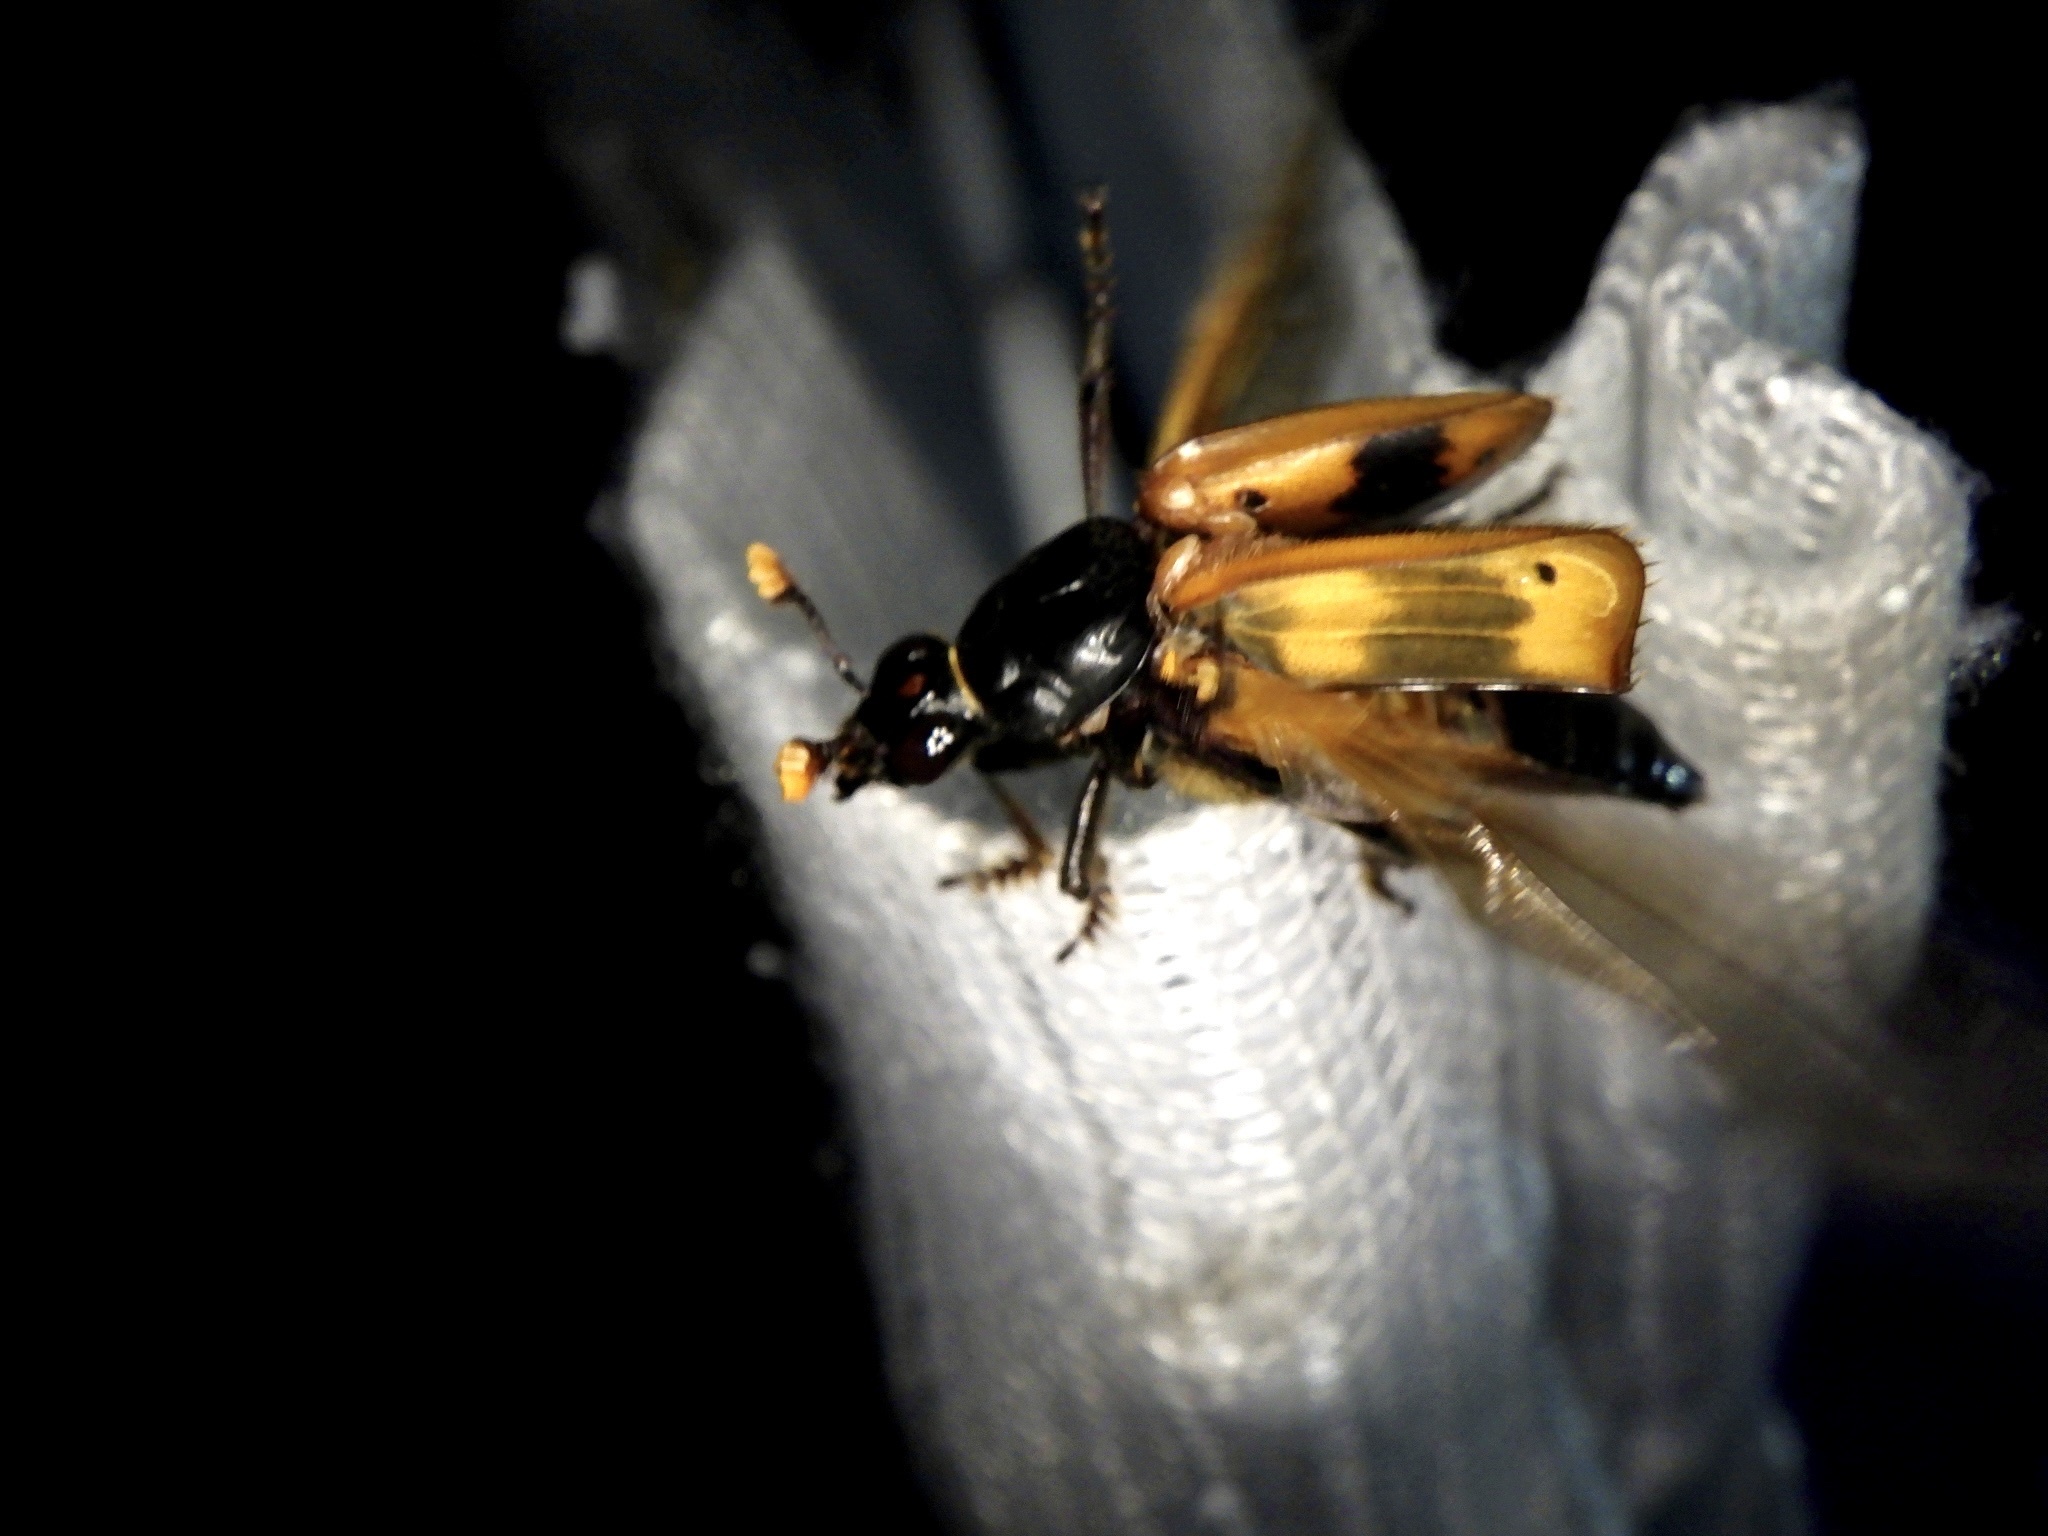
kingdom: Animalia
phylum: Arthropoda
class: Insecta
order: Coleoptera
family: Staphylinidae
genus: Nicrophorus
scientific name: Nicrophorus quadripunctatus
